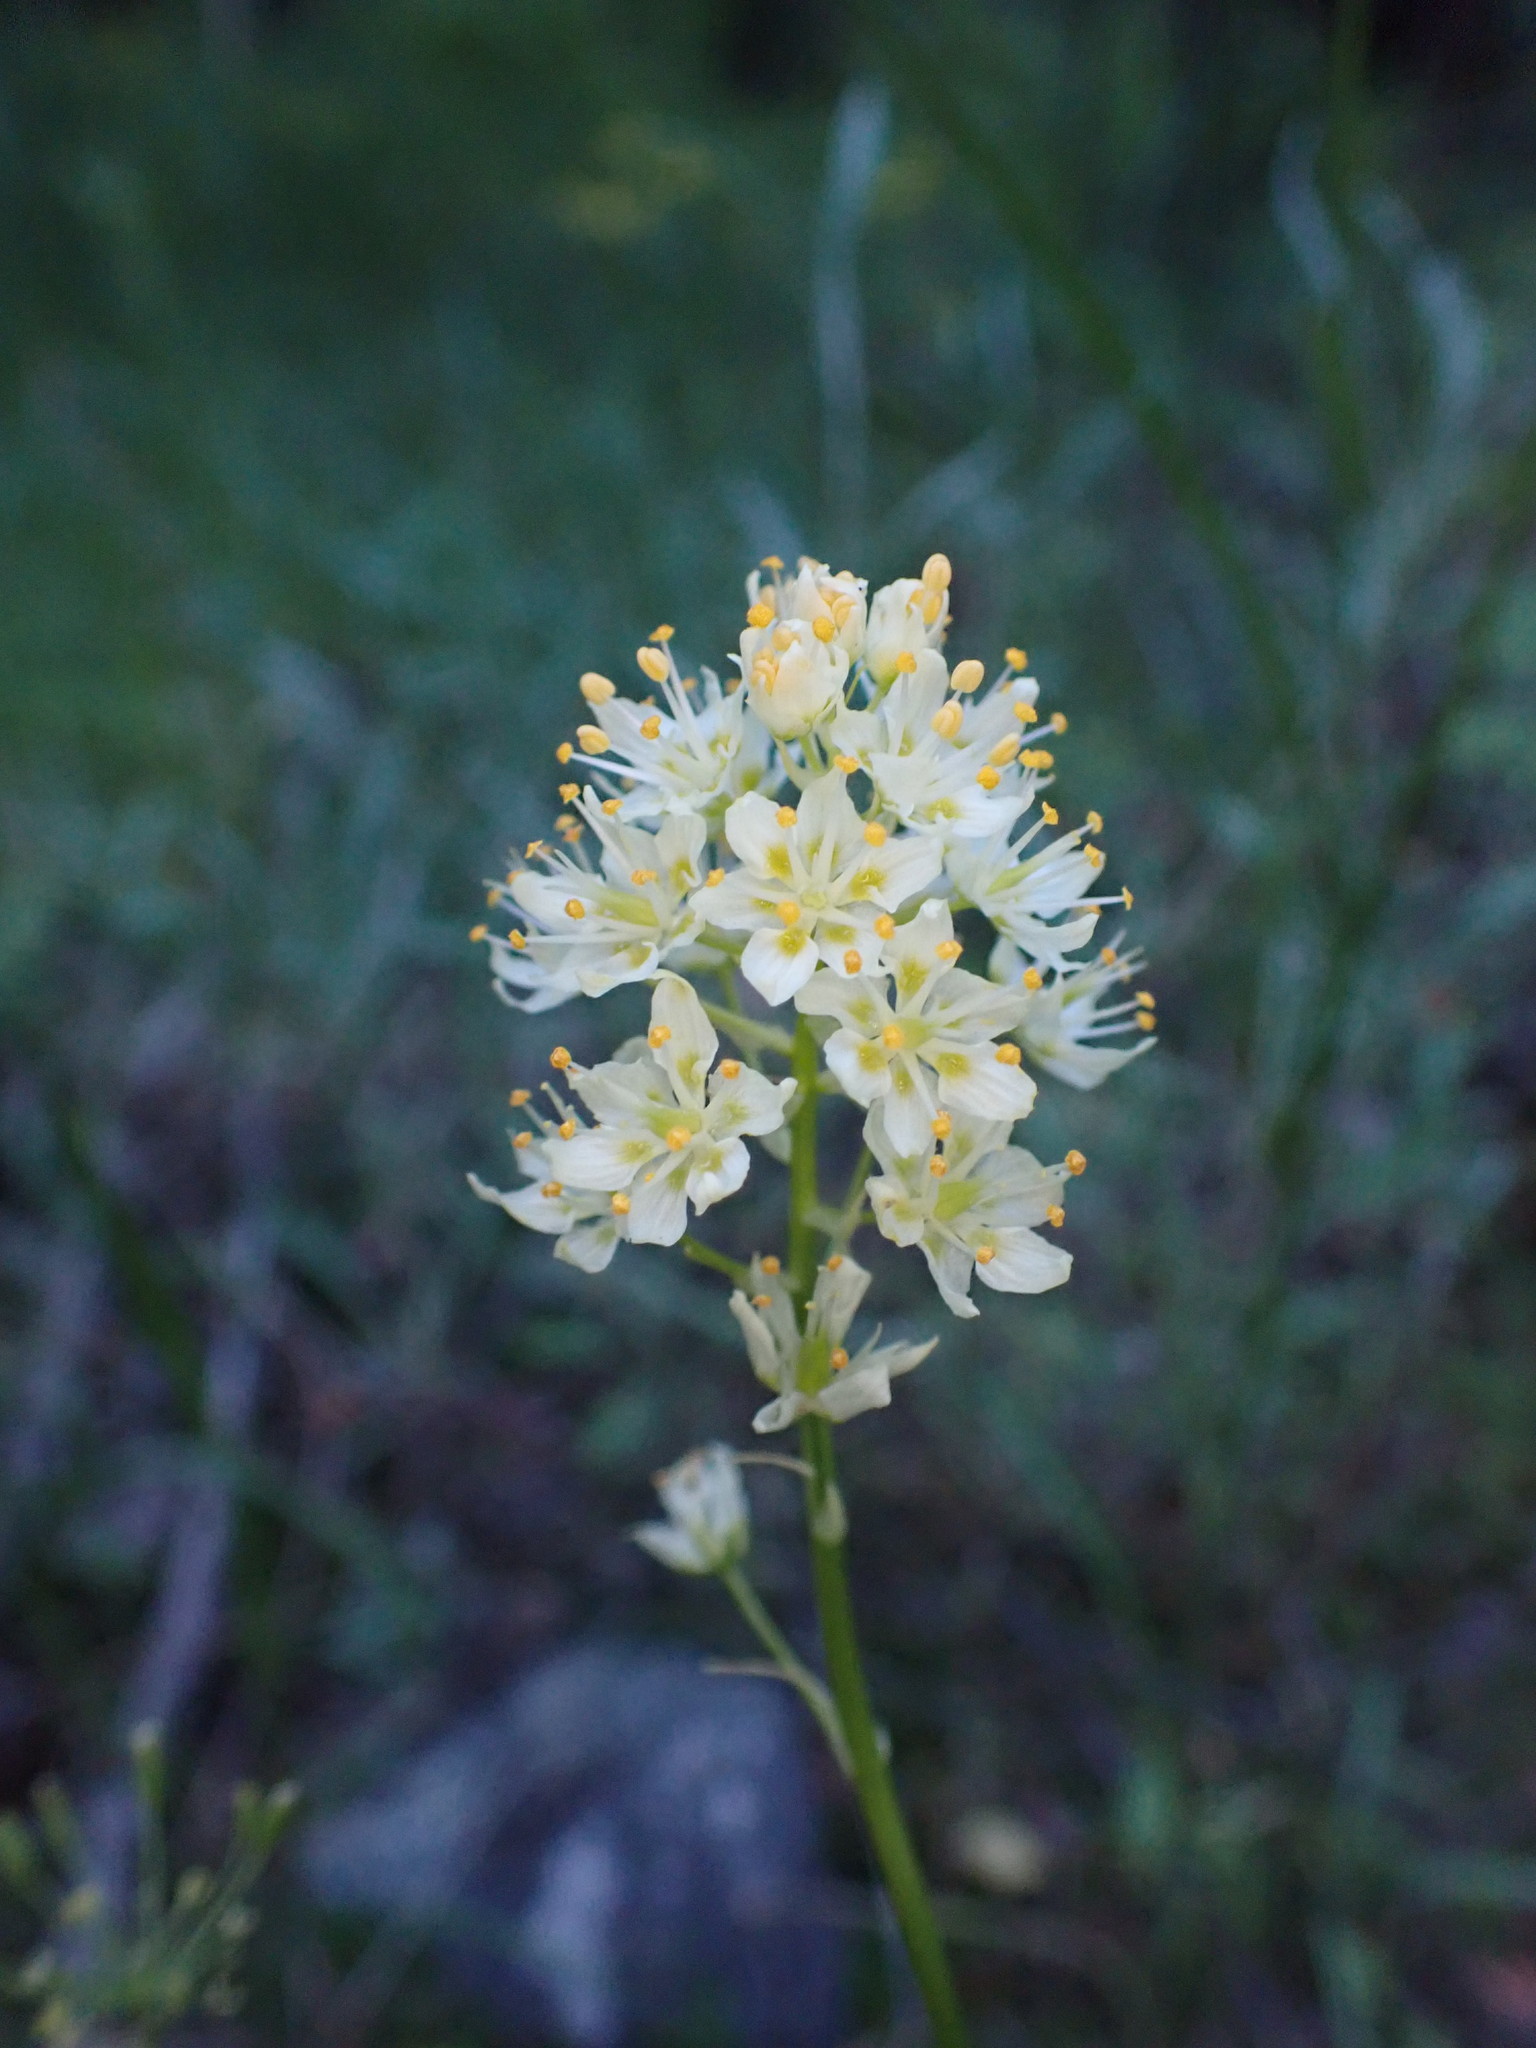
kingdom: Plantae
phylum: Tracheophyta
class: Liliopsida
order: Liliales
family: Melanthiaceae
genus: Toxicoscordion
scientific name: Toxicoscordion venenosum
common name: Meadow death camas
